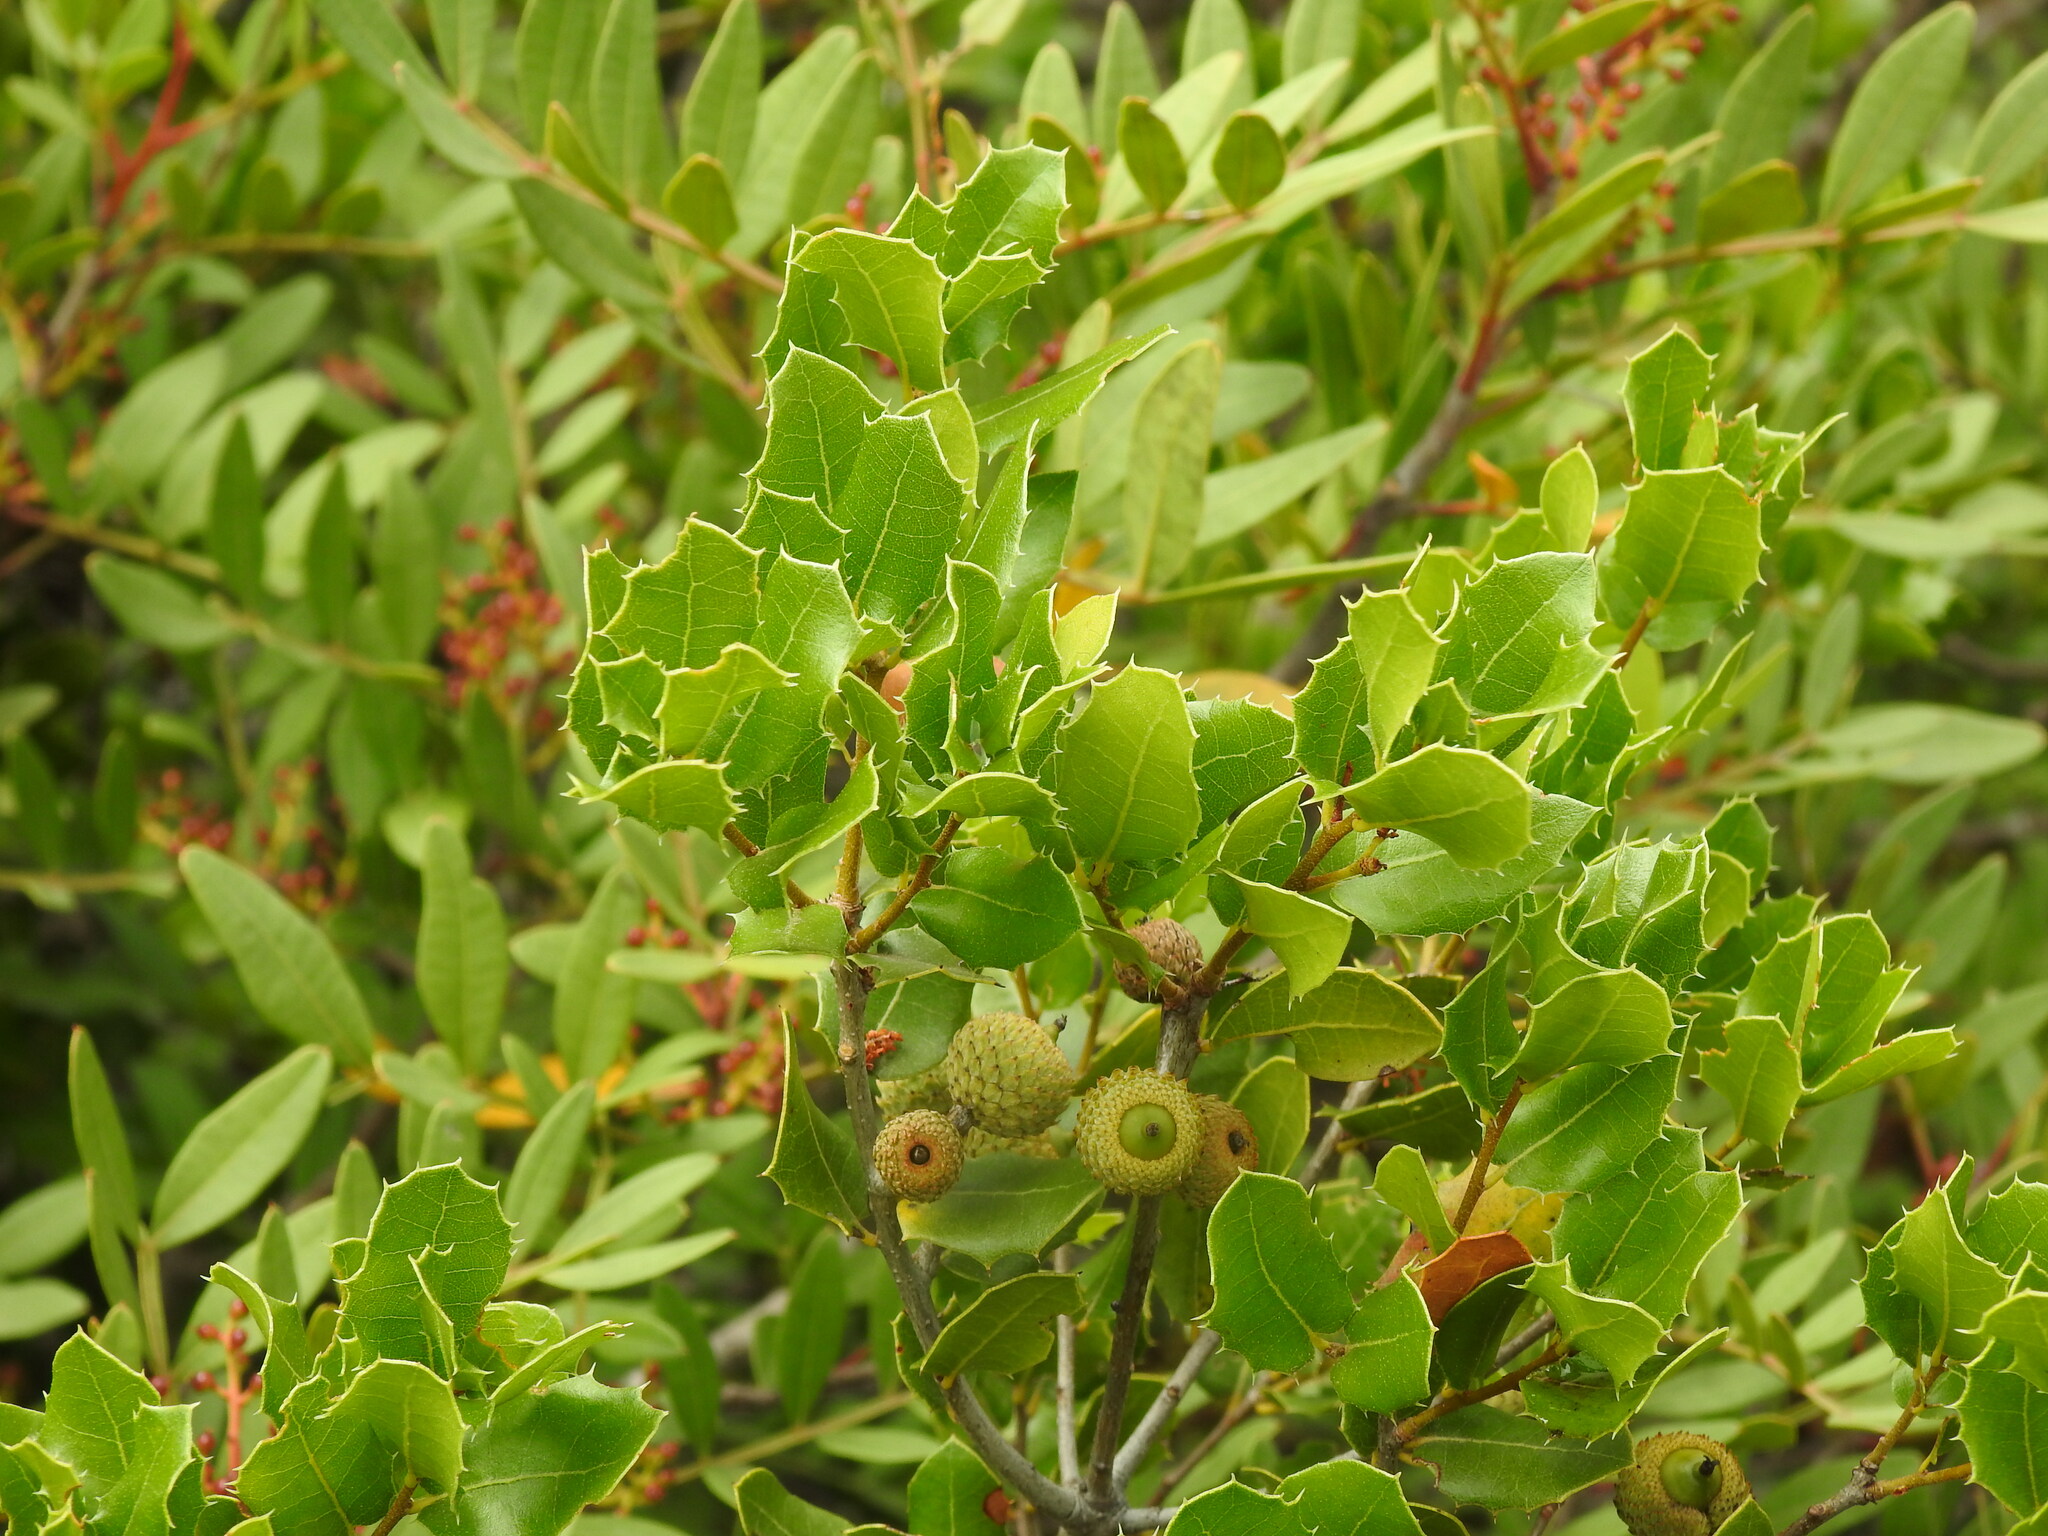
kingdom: Plantae
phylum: Tracheophyta
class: Magnoliopsida
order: Fagales
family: Fagaceae
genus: Quercus
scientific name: Quercus coccifera
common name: Kermes oak
